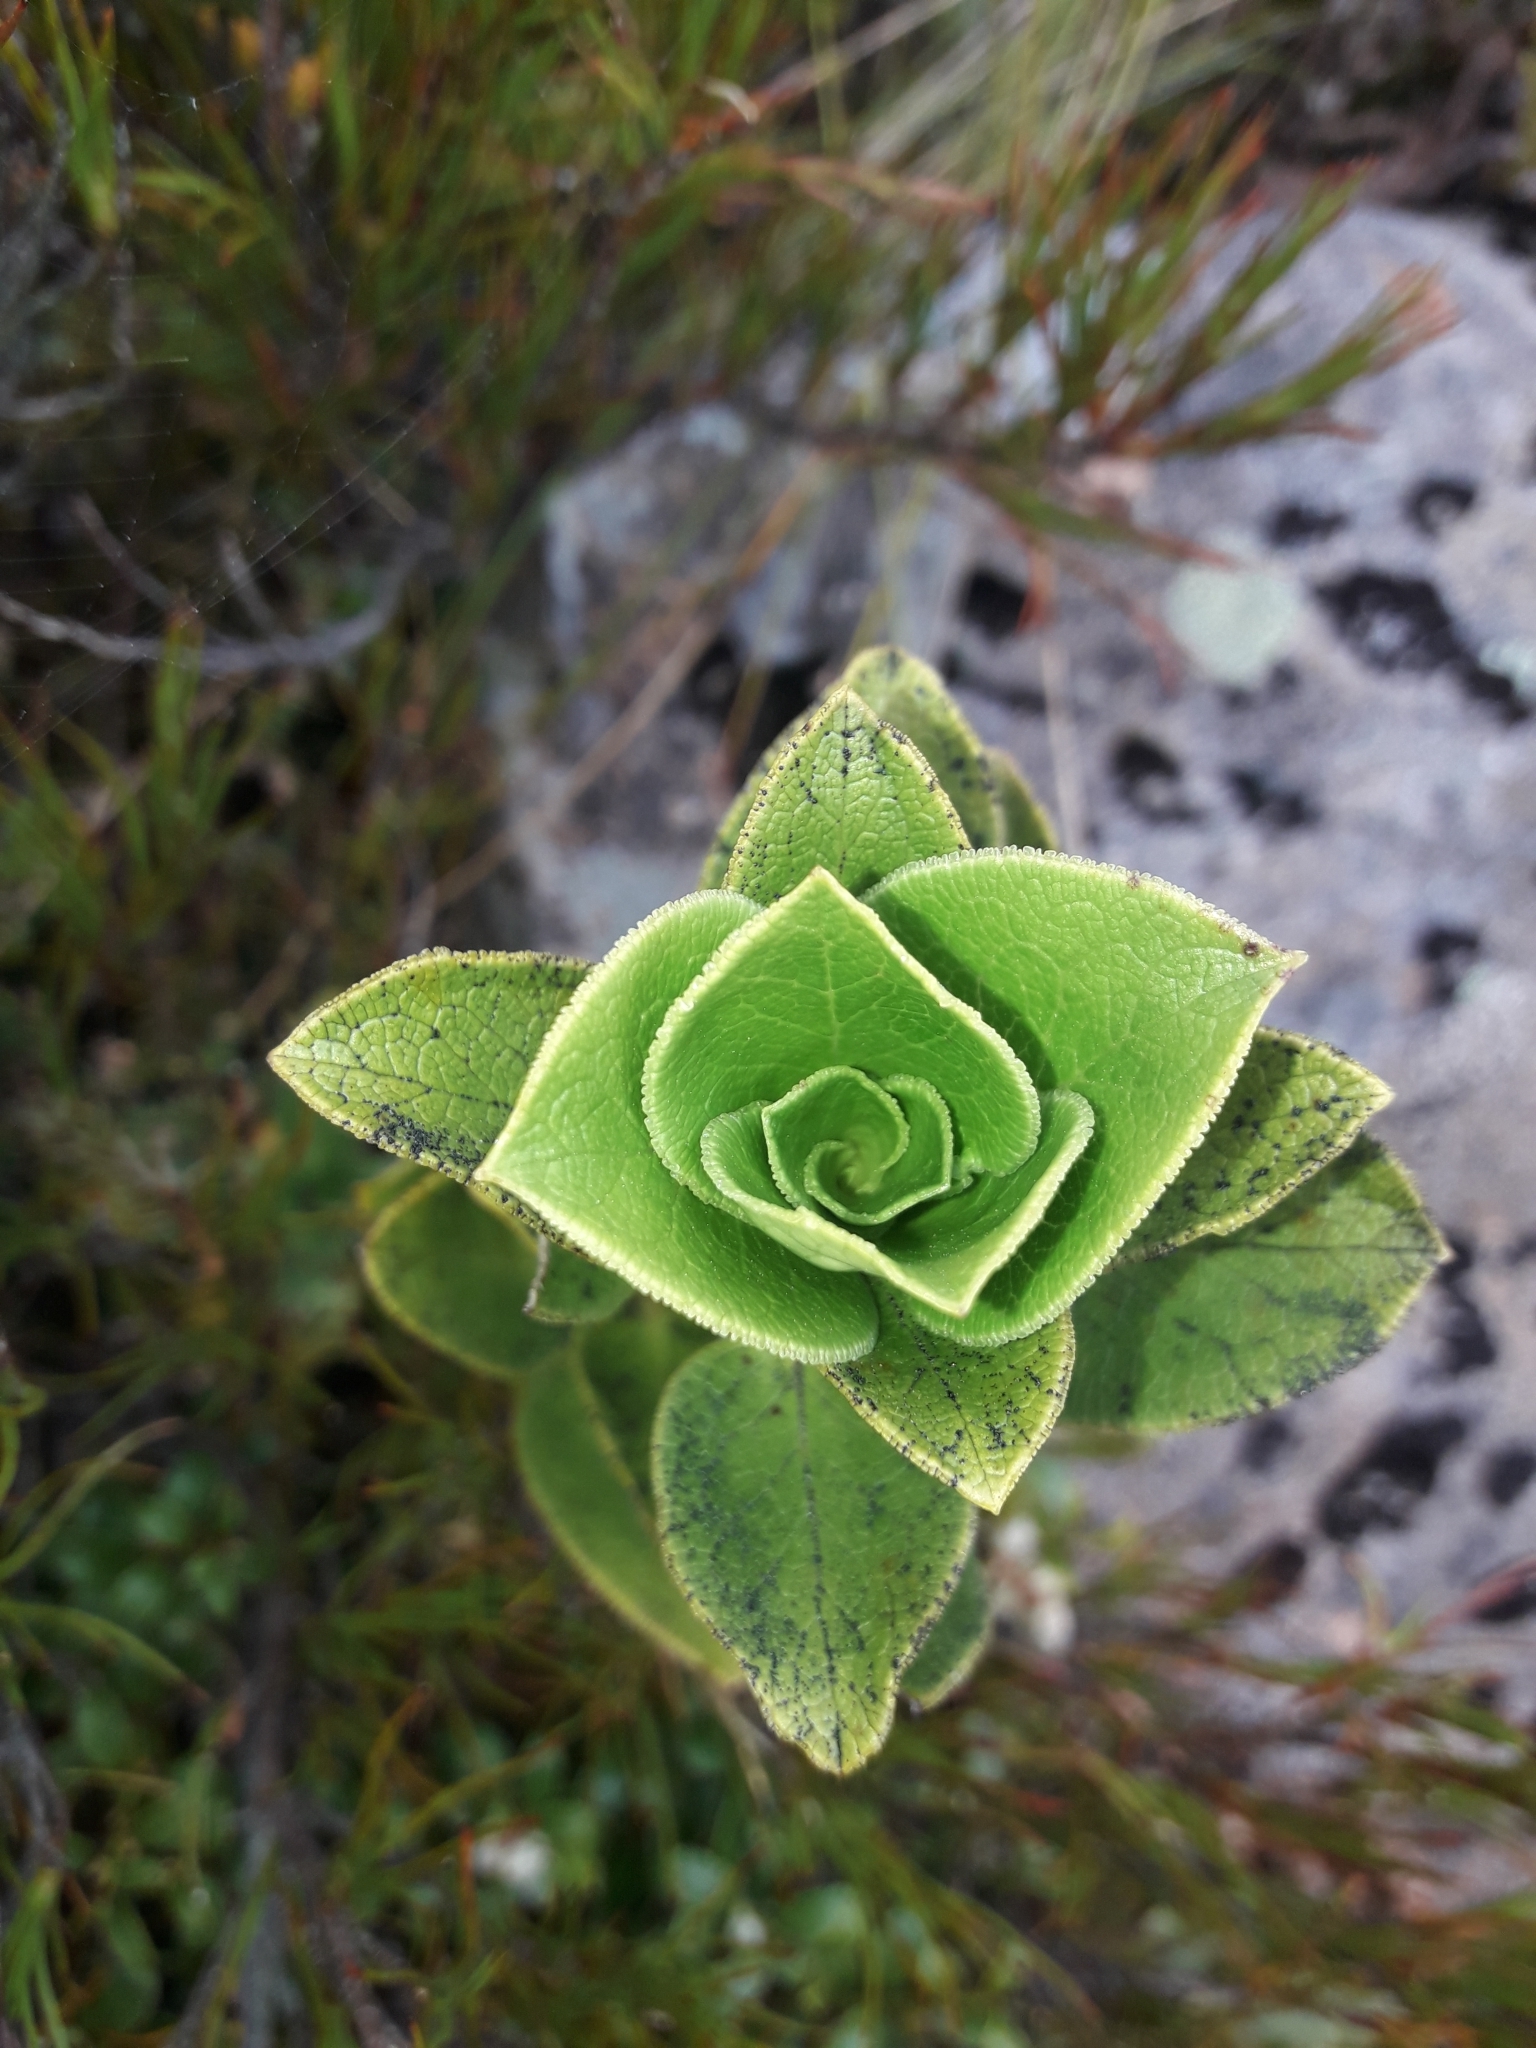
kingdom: Plantae
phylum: Tracheophyta
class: Magnoliopsida
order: Gentianales
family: Rubiaceae
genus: Coprosma
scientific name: Coprosma serrulata
